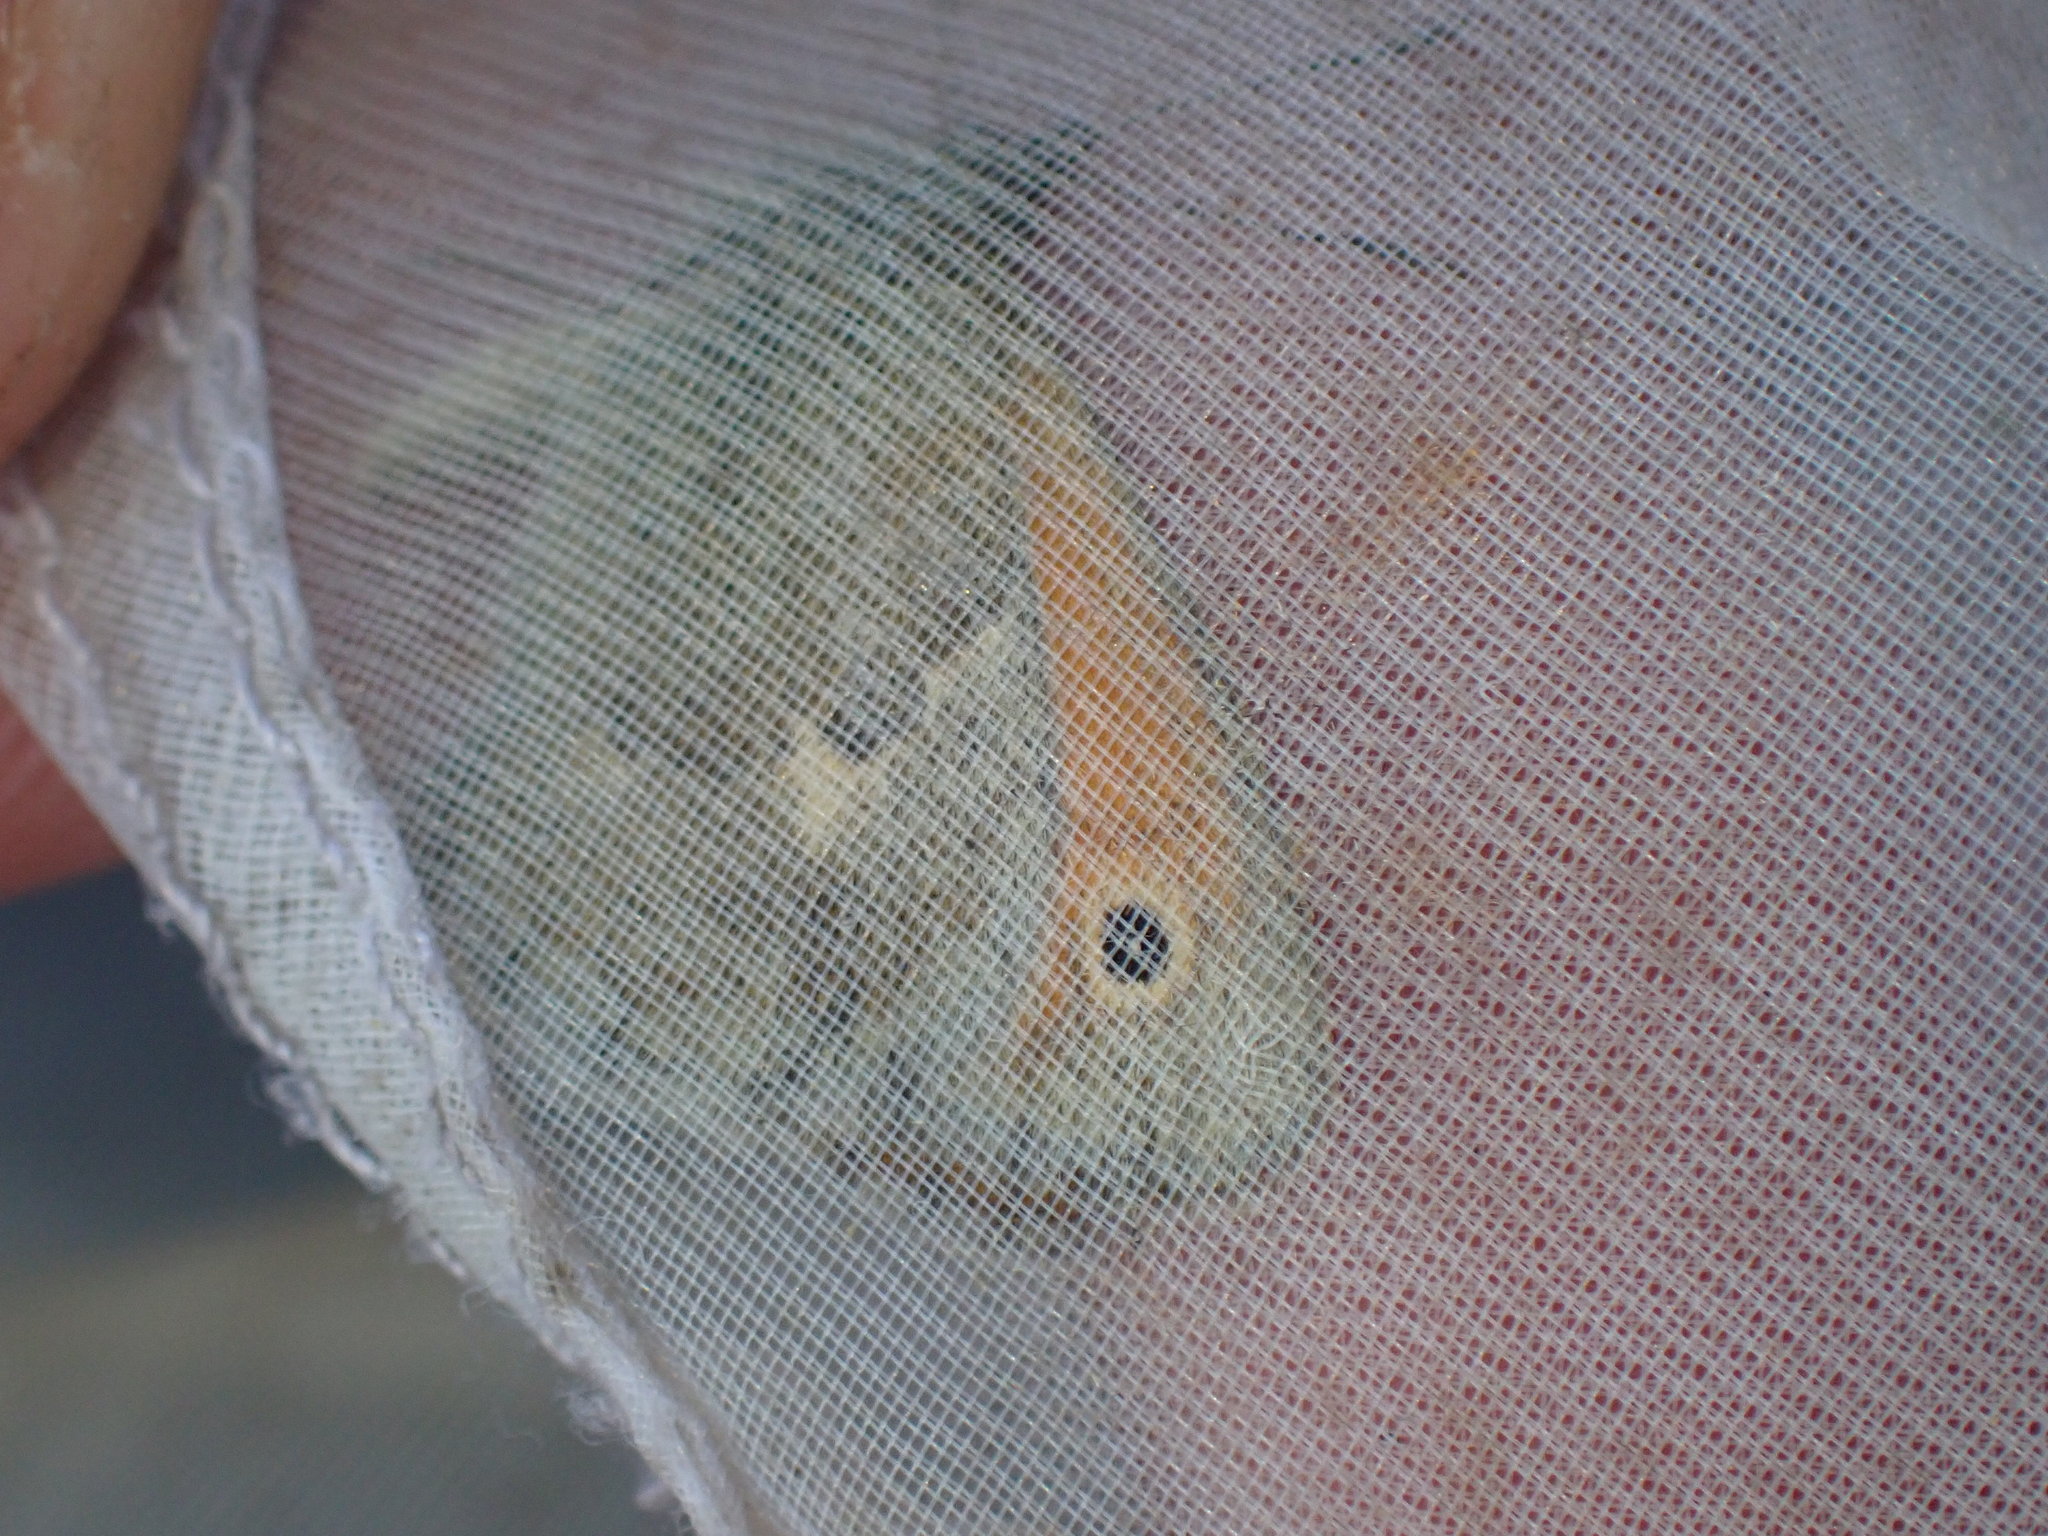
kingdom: Animalia
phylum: Arthropoda
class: Insecta
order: Lepidoptera
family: Nymphalidae
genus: Coenonympha
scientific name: Coenonympha pamphilus
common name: Small heath
